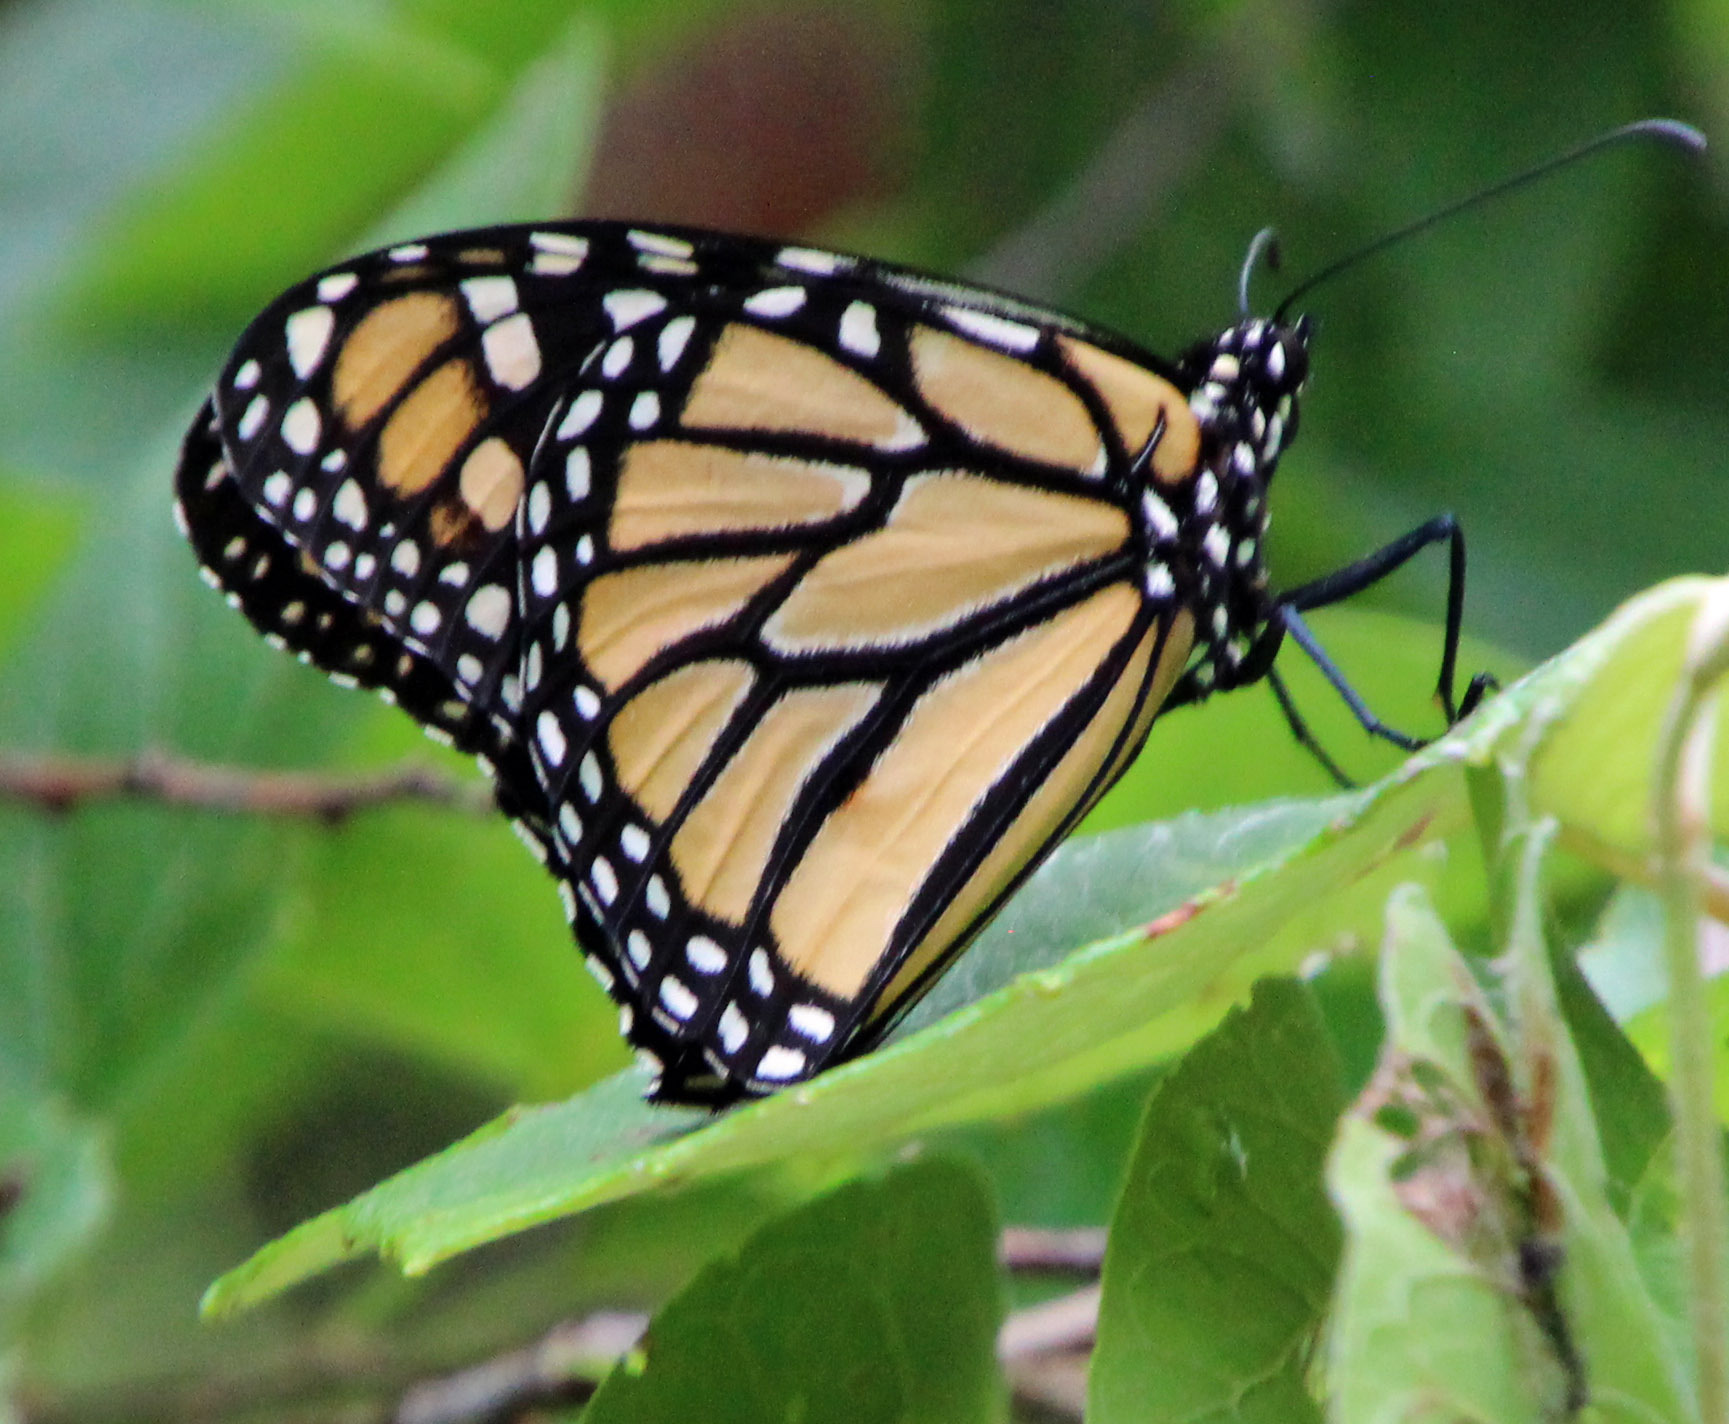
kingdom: Animalia
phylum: Arthropoda
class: Insecta
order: Lepidoptera
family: Nymphalidae
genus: Danaus
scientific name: Danaus plexippus
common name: Monarch
